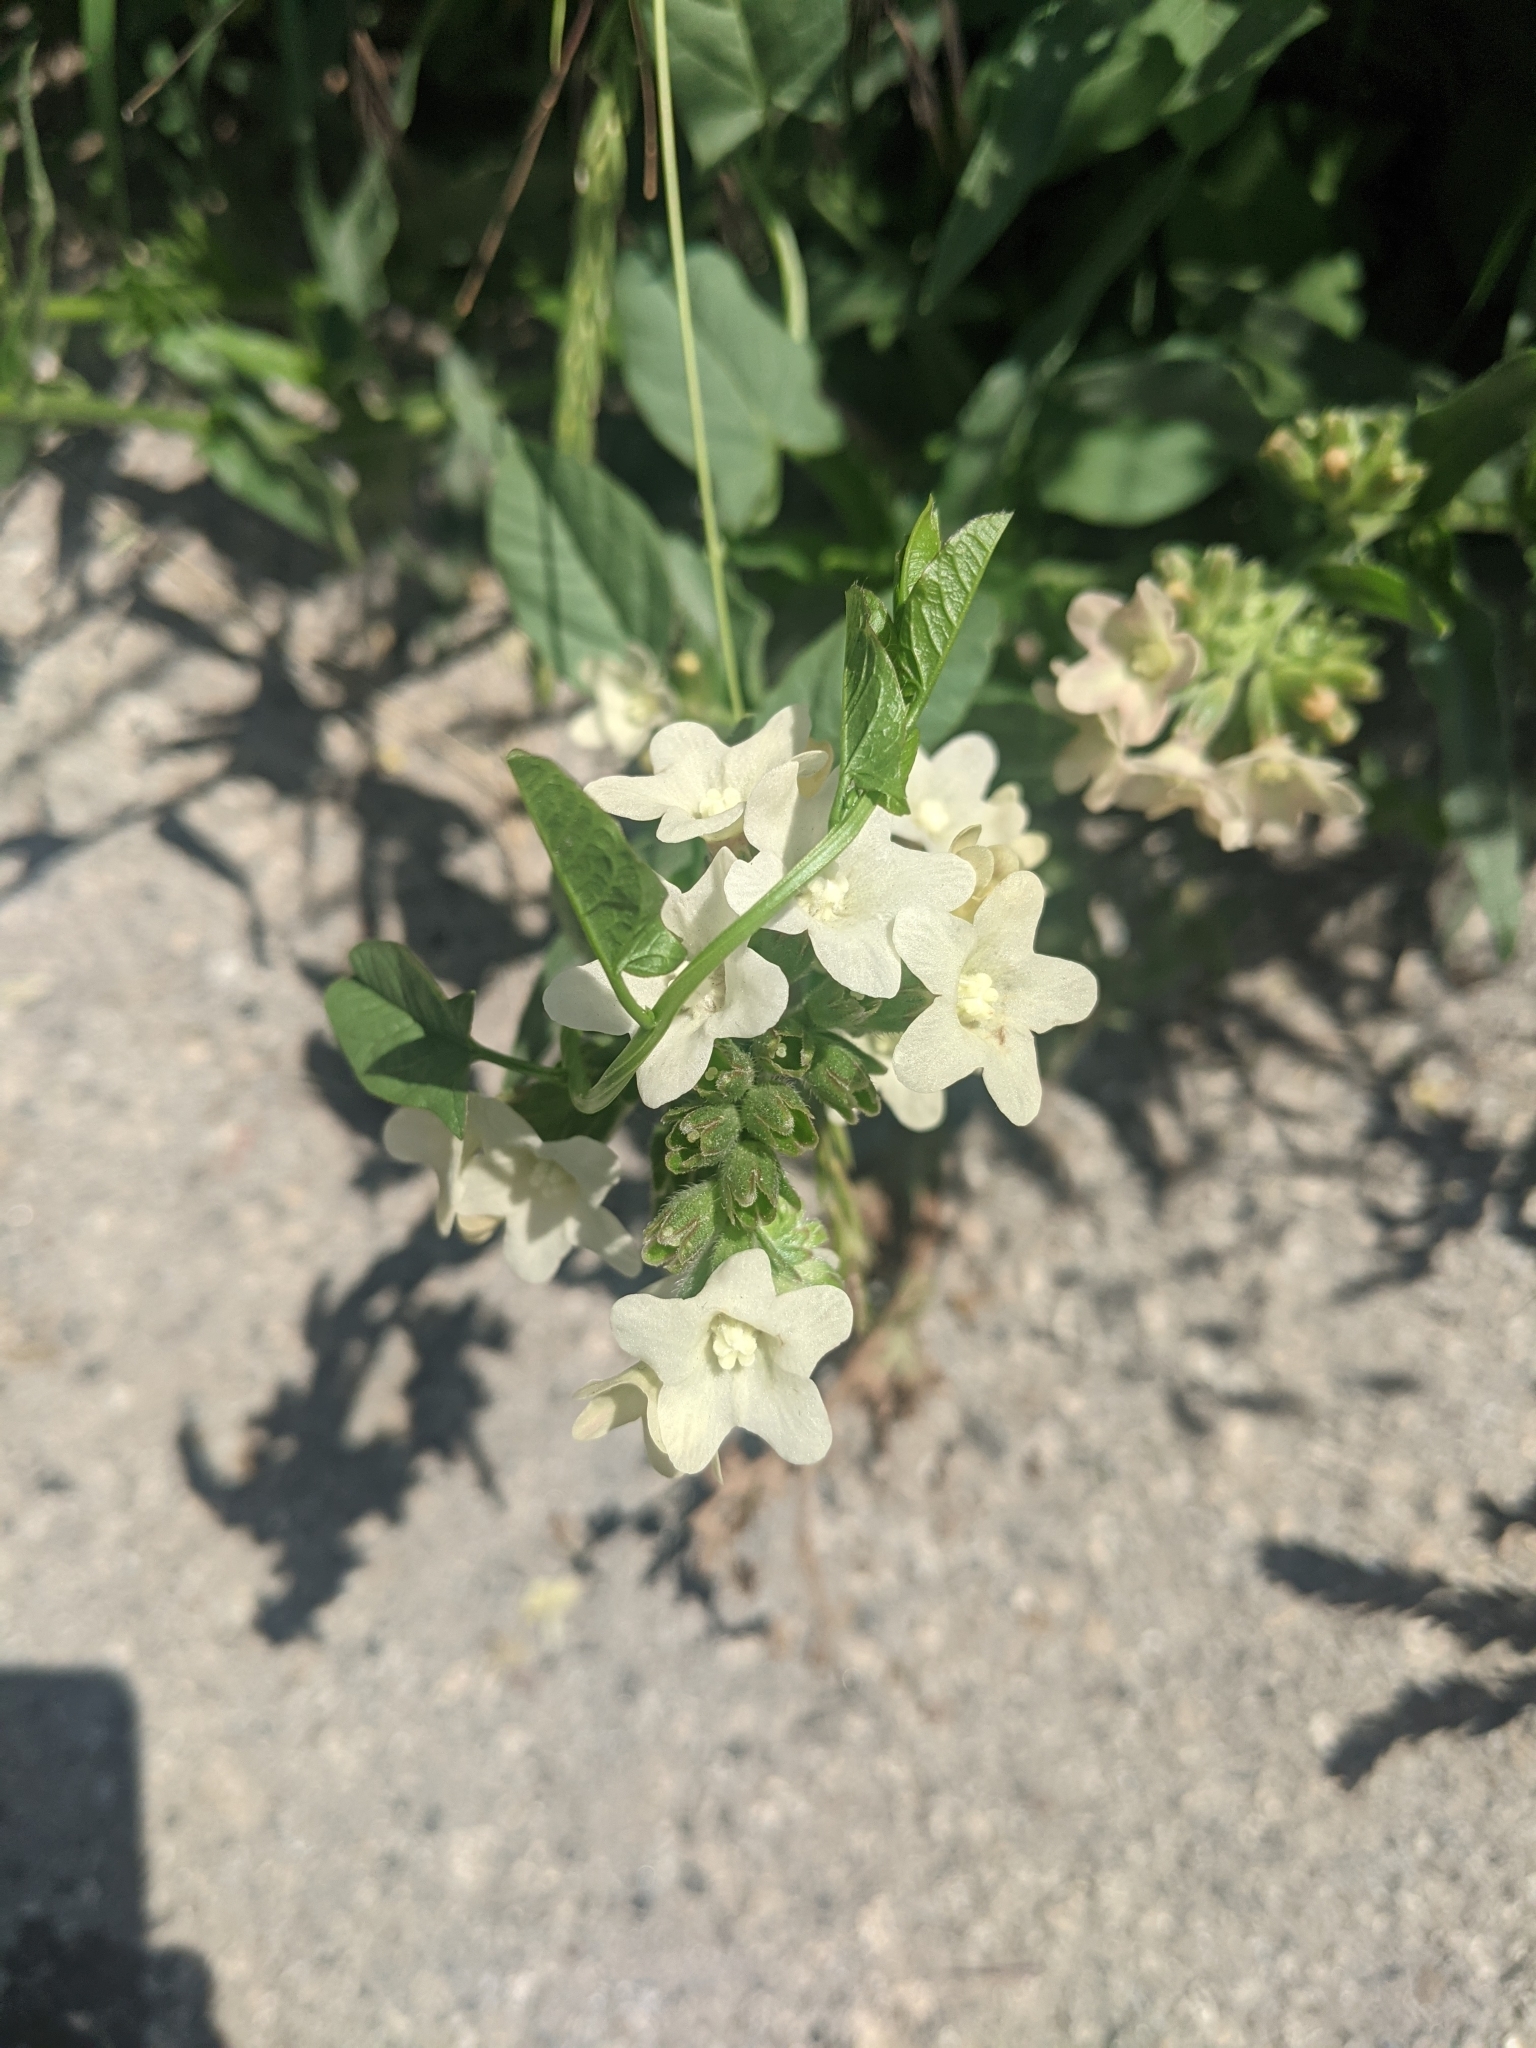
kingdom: Plantae
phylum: Tracheophyta
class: Magnoliopsida
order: Boraginales
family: Boraginaceae
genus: Anchusa
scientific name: Anchusa ochroleuca
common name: Yellow alkanet
